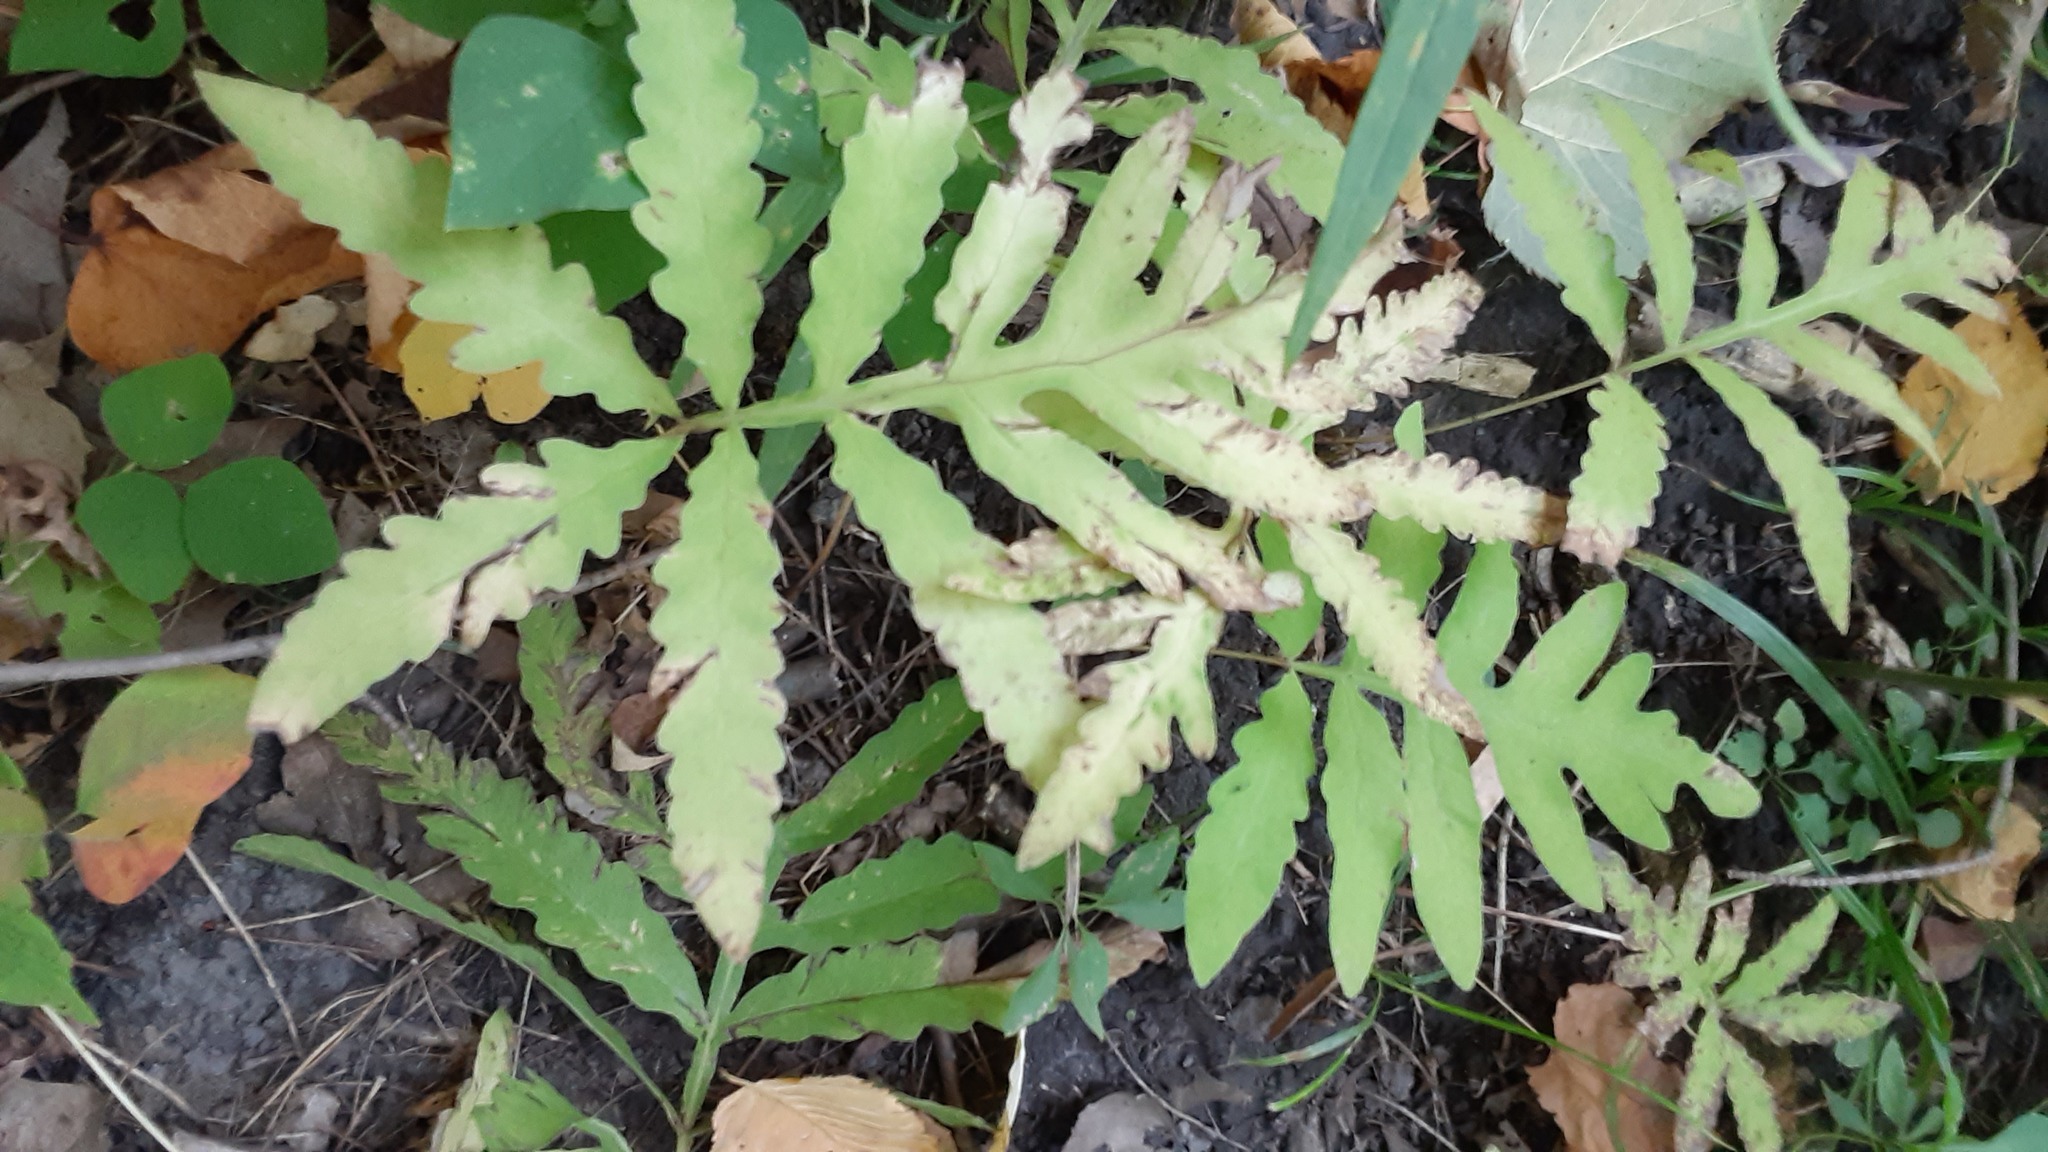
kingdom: Plantae
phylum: Tracheophyta
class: Polypodiopsida
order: Polypodiales
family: Onocleaceae
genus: Onoclea
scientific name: Onoclea sensibilis
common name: Sensitive fern
